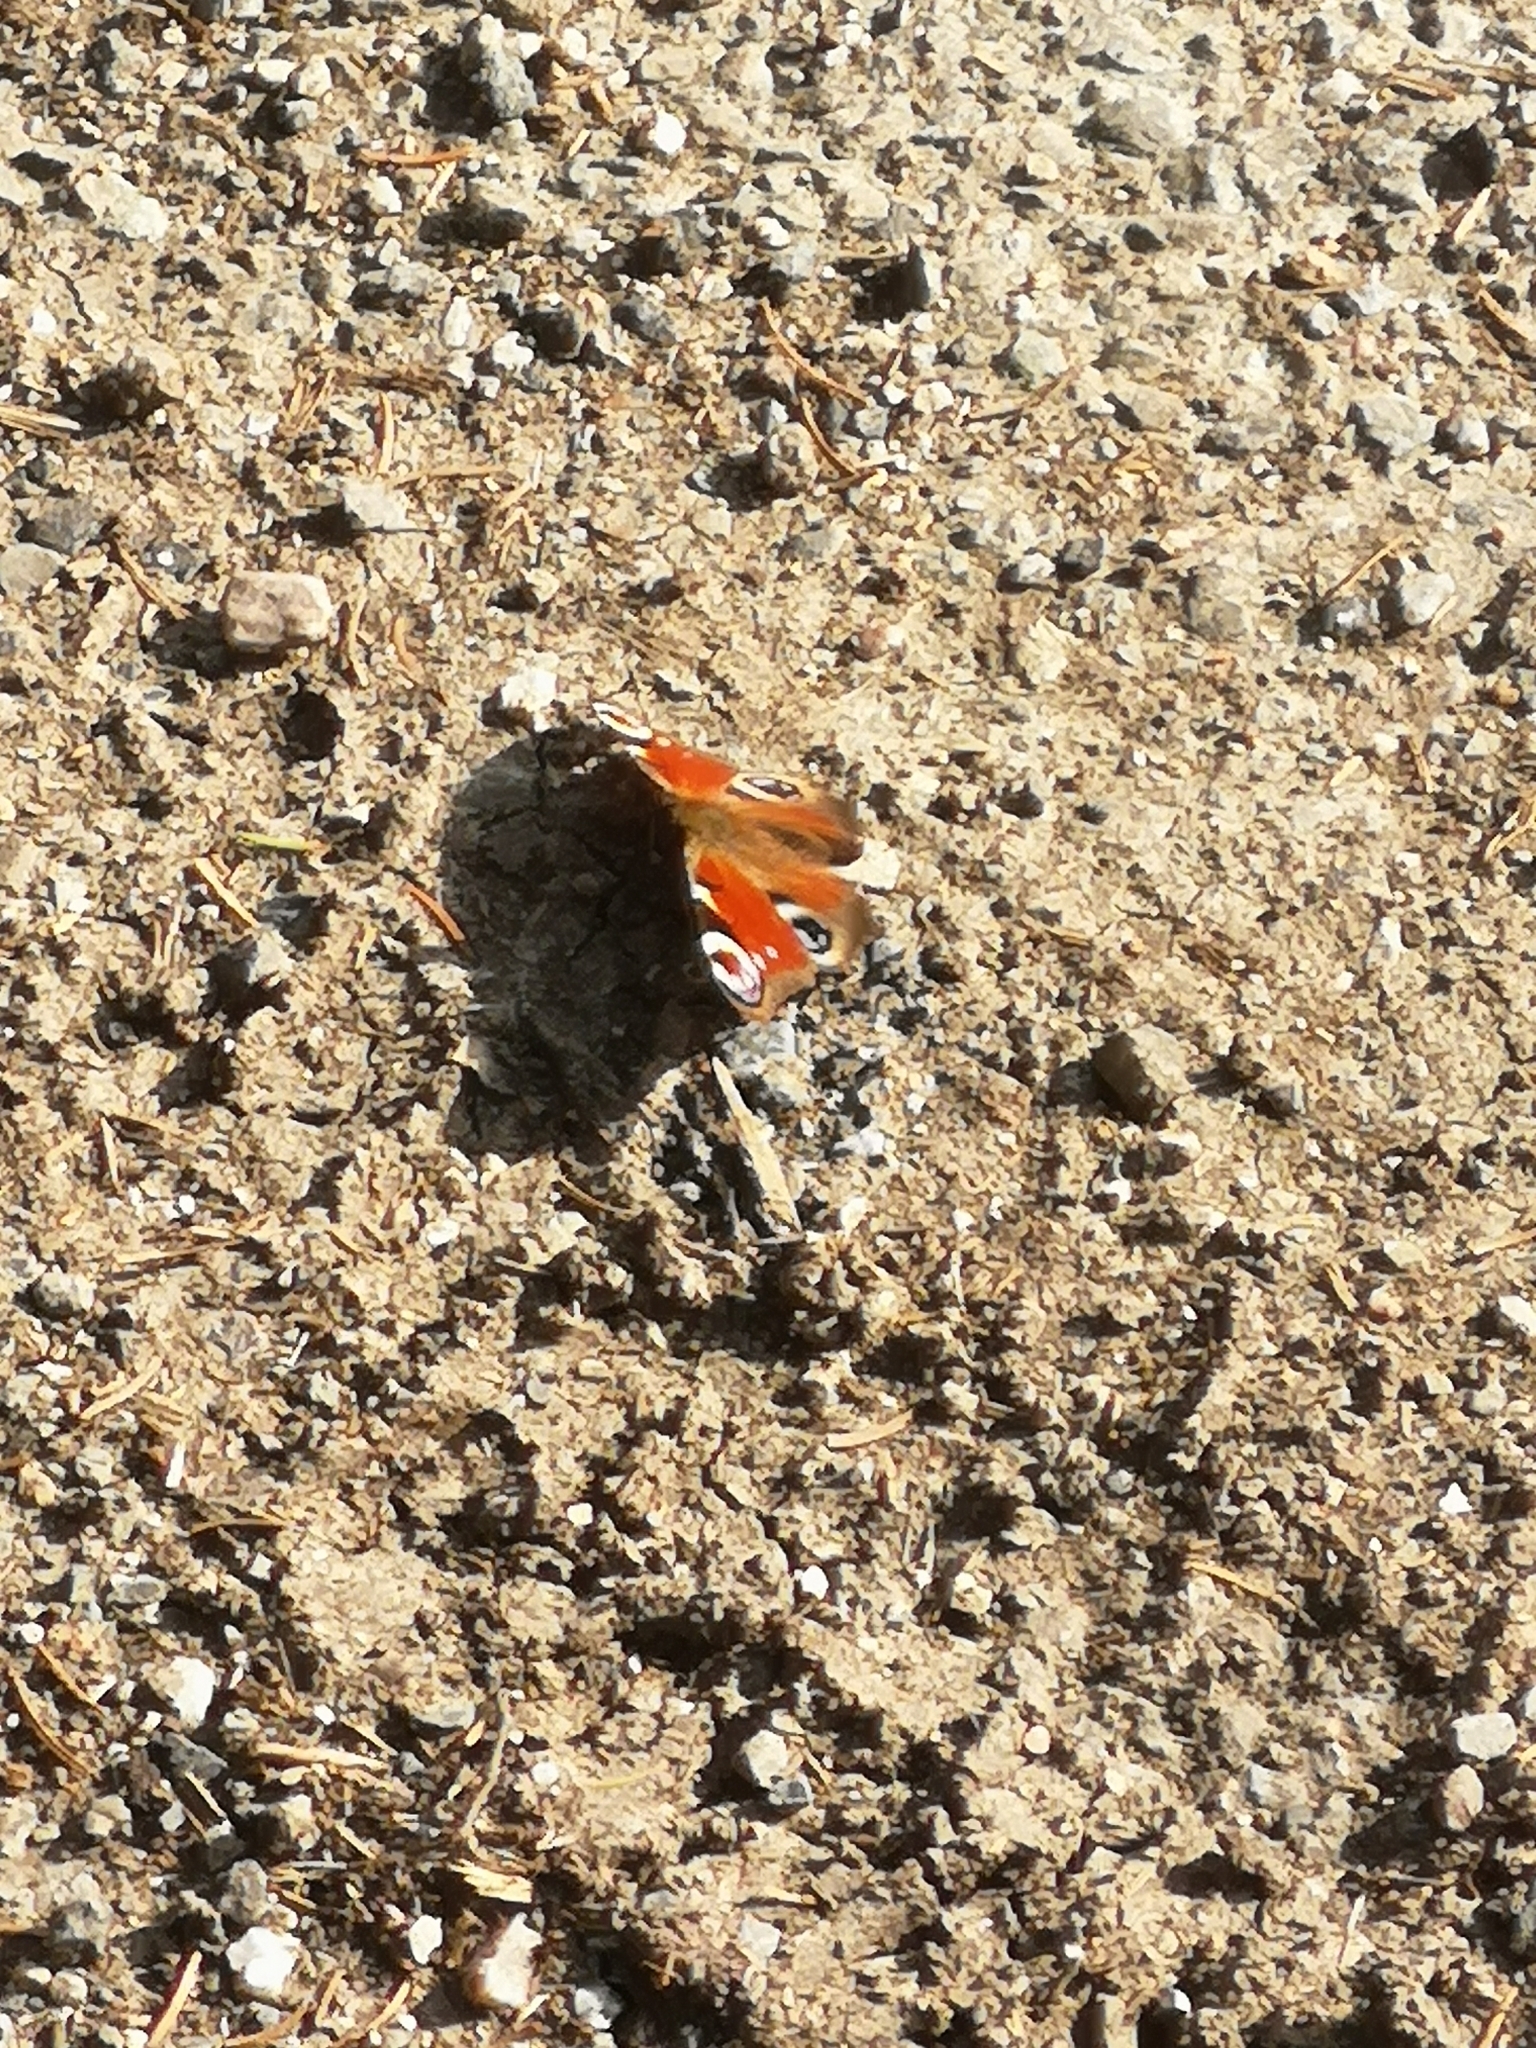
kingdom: Animalia
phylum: Arthropoda
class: Insecta
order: Lepidoptera
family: Nymphalidae
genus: Aglais
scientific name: Aglais io
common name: Peacock
